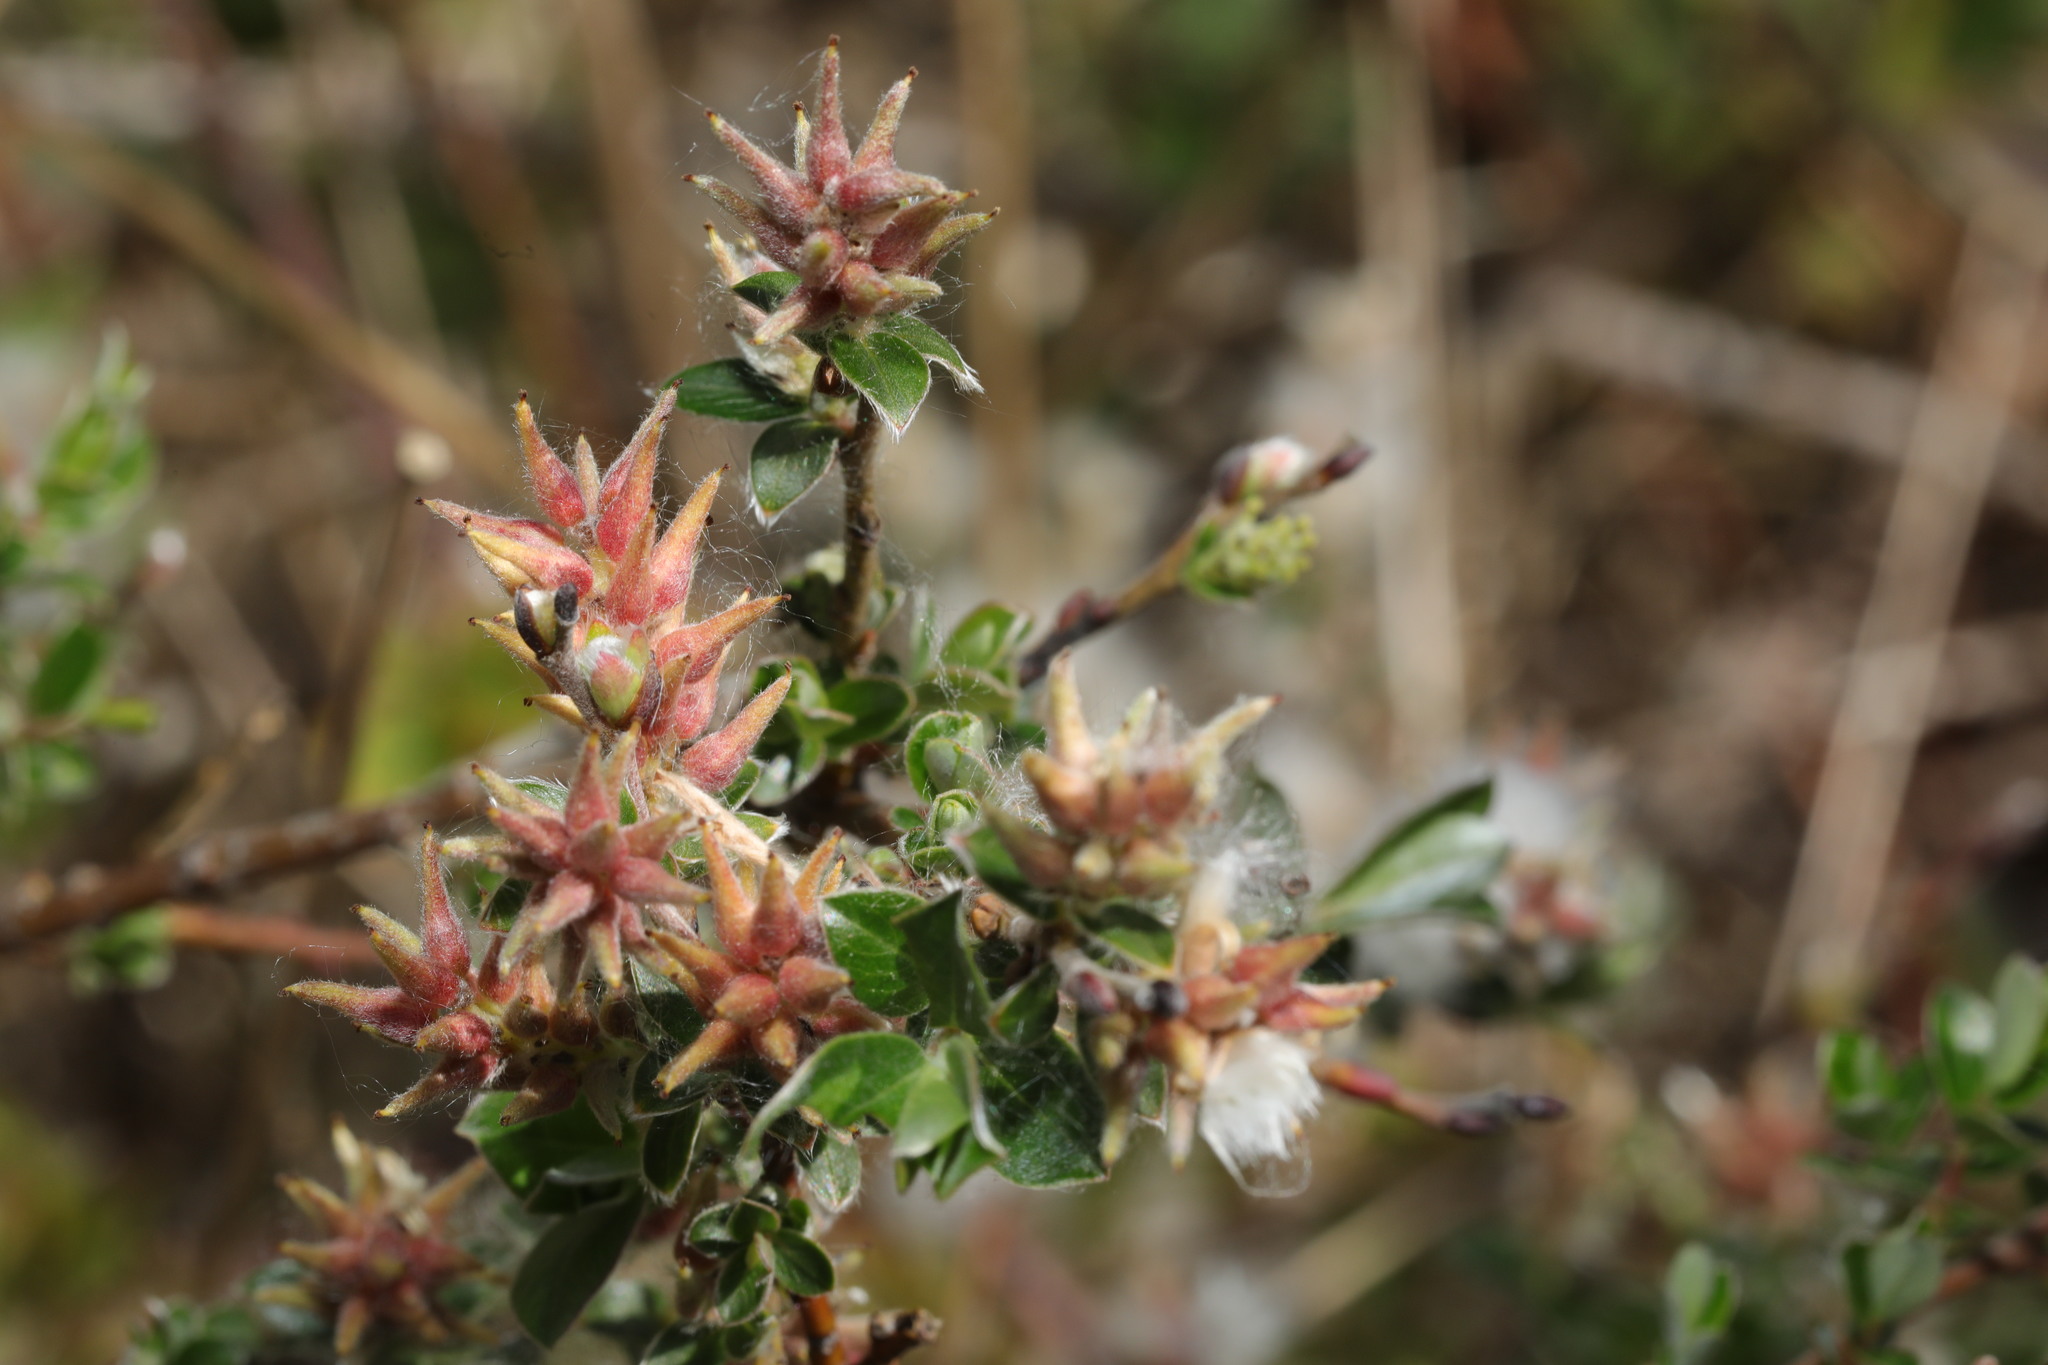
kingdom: Plantae
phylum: Tracheophyta
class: Magnoliopsida
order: Malpighiales
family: Salicaceae
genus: Salix
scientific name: Salix repens
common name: Creeping willow
